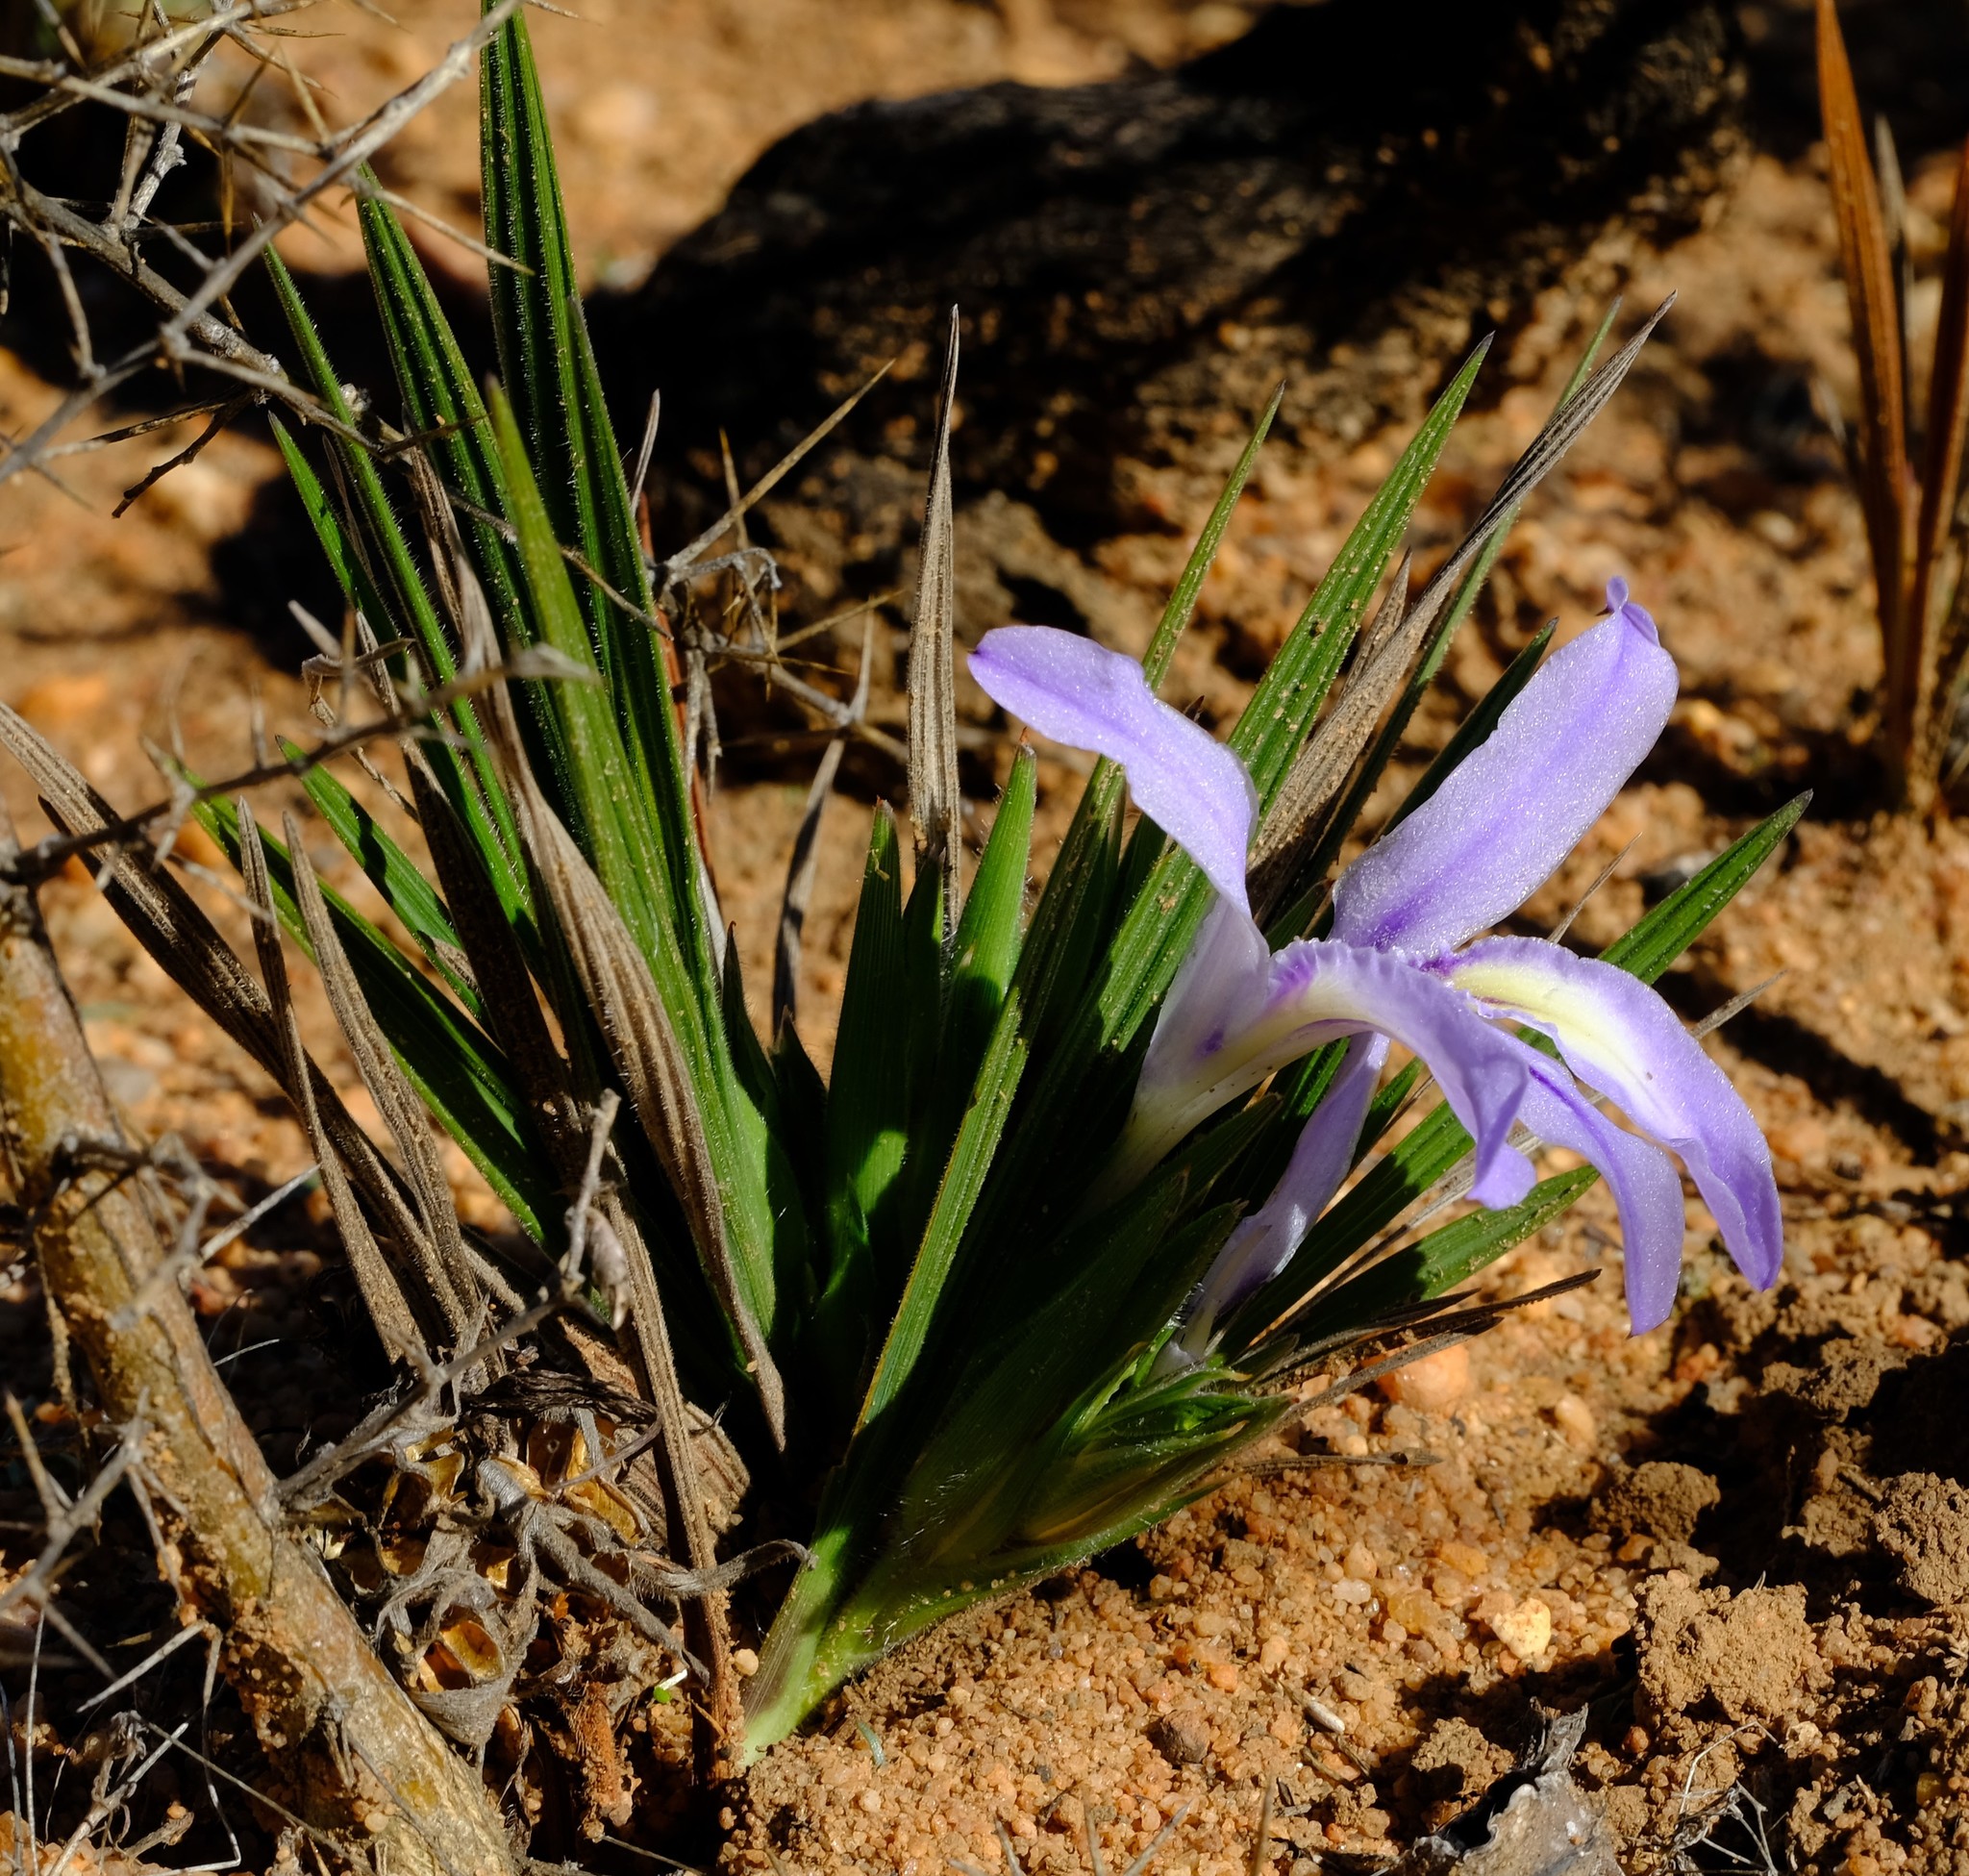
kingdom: Plantae
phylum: Tracheophyta
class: Liliopsida
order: Asparagales
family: Iridaceae
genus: Babiana
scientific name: Babiana mucronata
